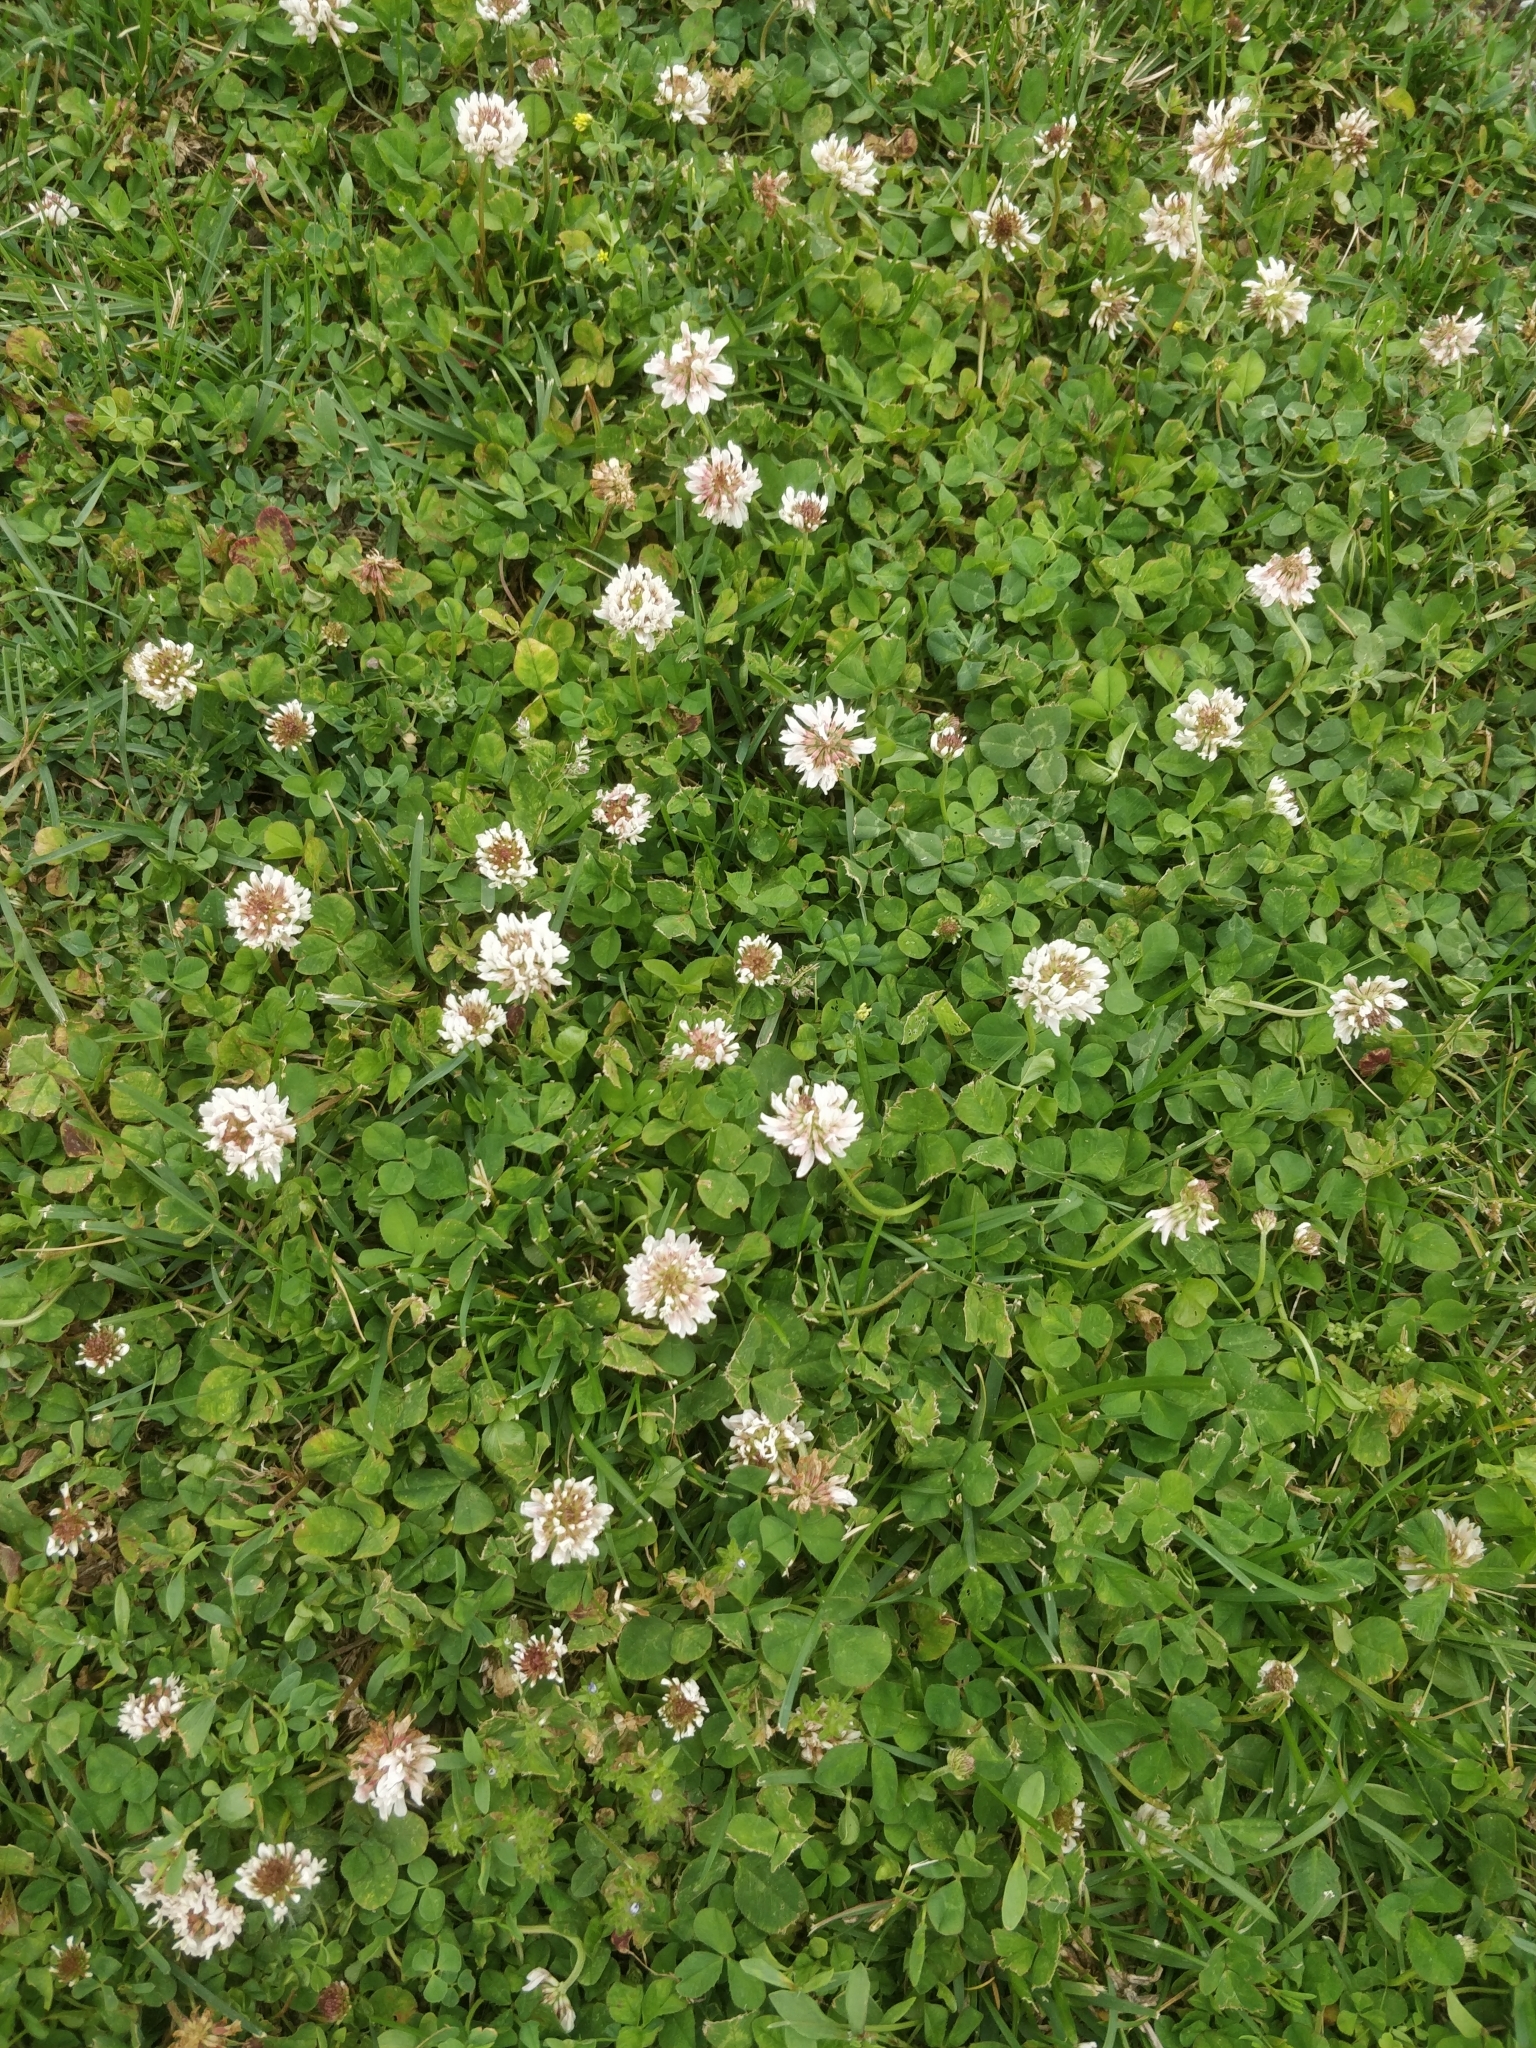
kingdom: Plantae
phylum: Tracheophyta
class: Magnoliopsida
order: Fabales
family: Fabaceae
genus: Trifolium
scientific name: Trifolium repens
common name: White clover
